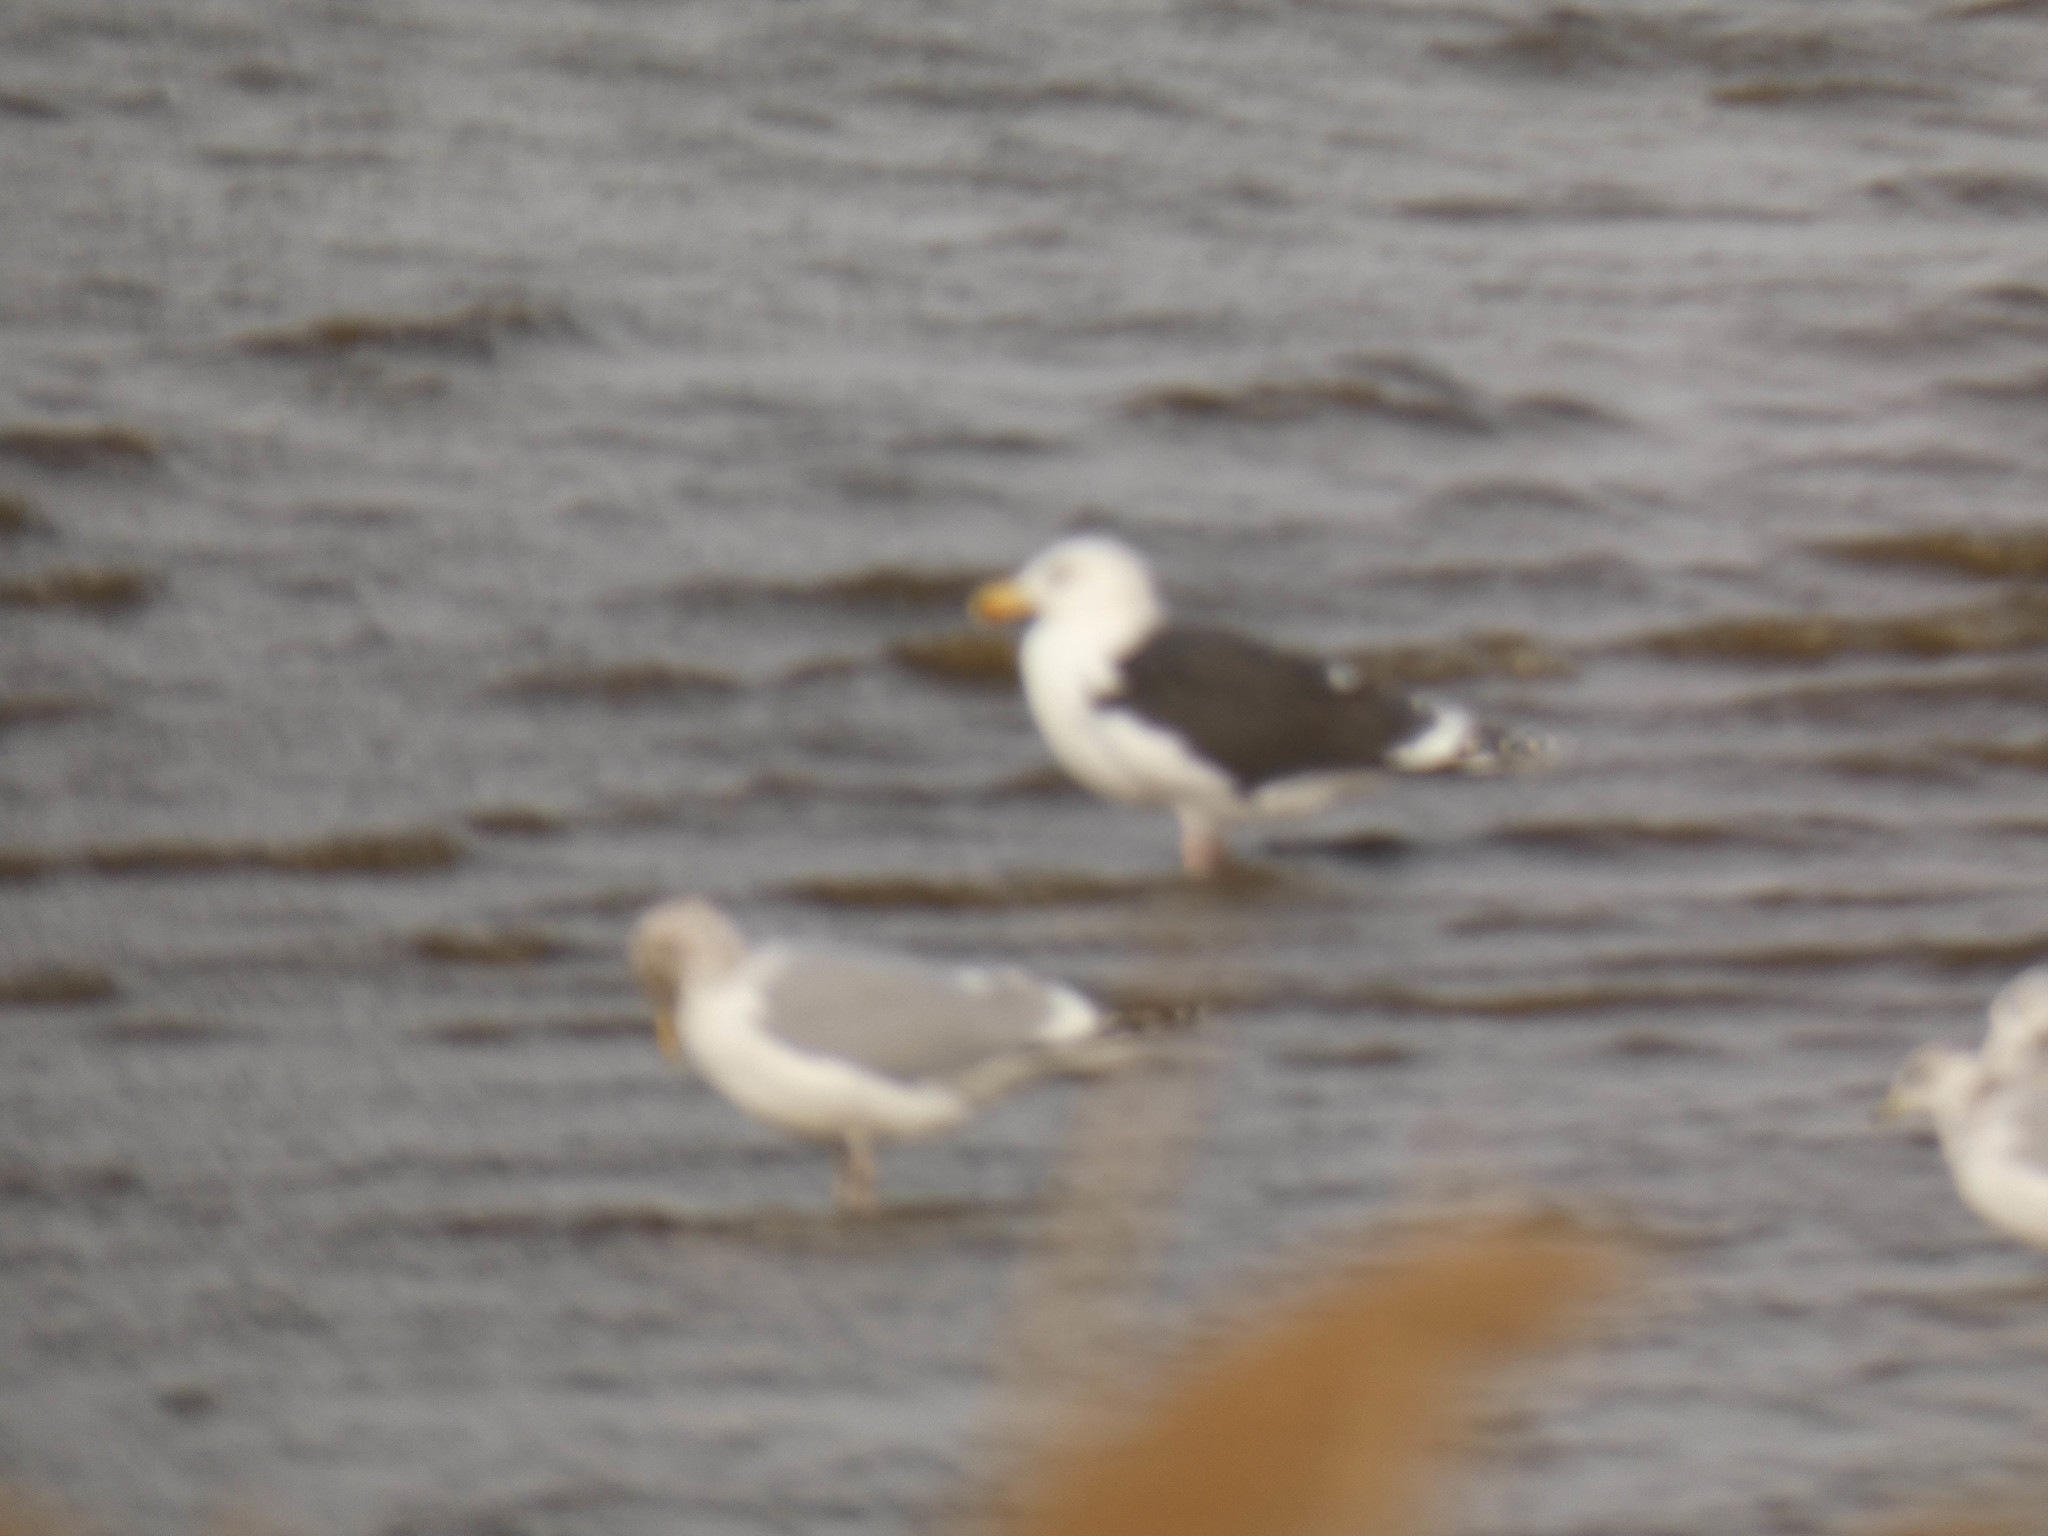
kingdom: Animalia
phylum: Chordata
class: Aves
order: Charadriiformes
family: Laridae
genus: Larus
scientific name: Larus marinus
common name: Great black-backed gull
